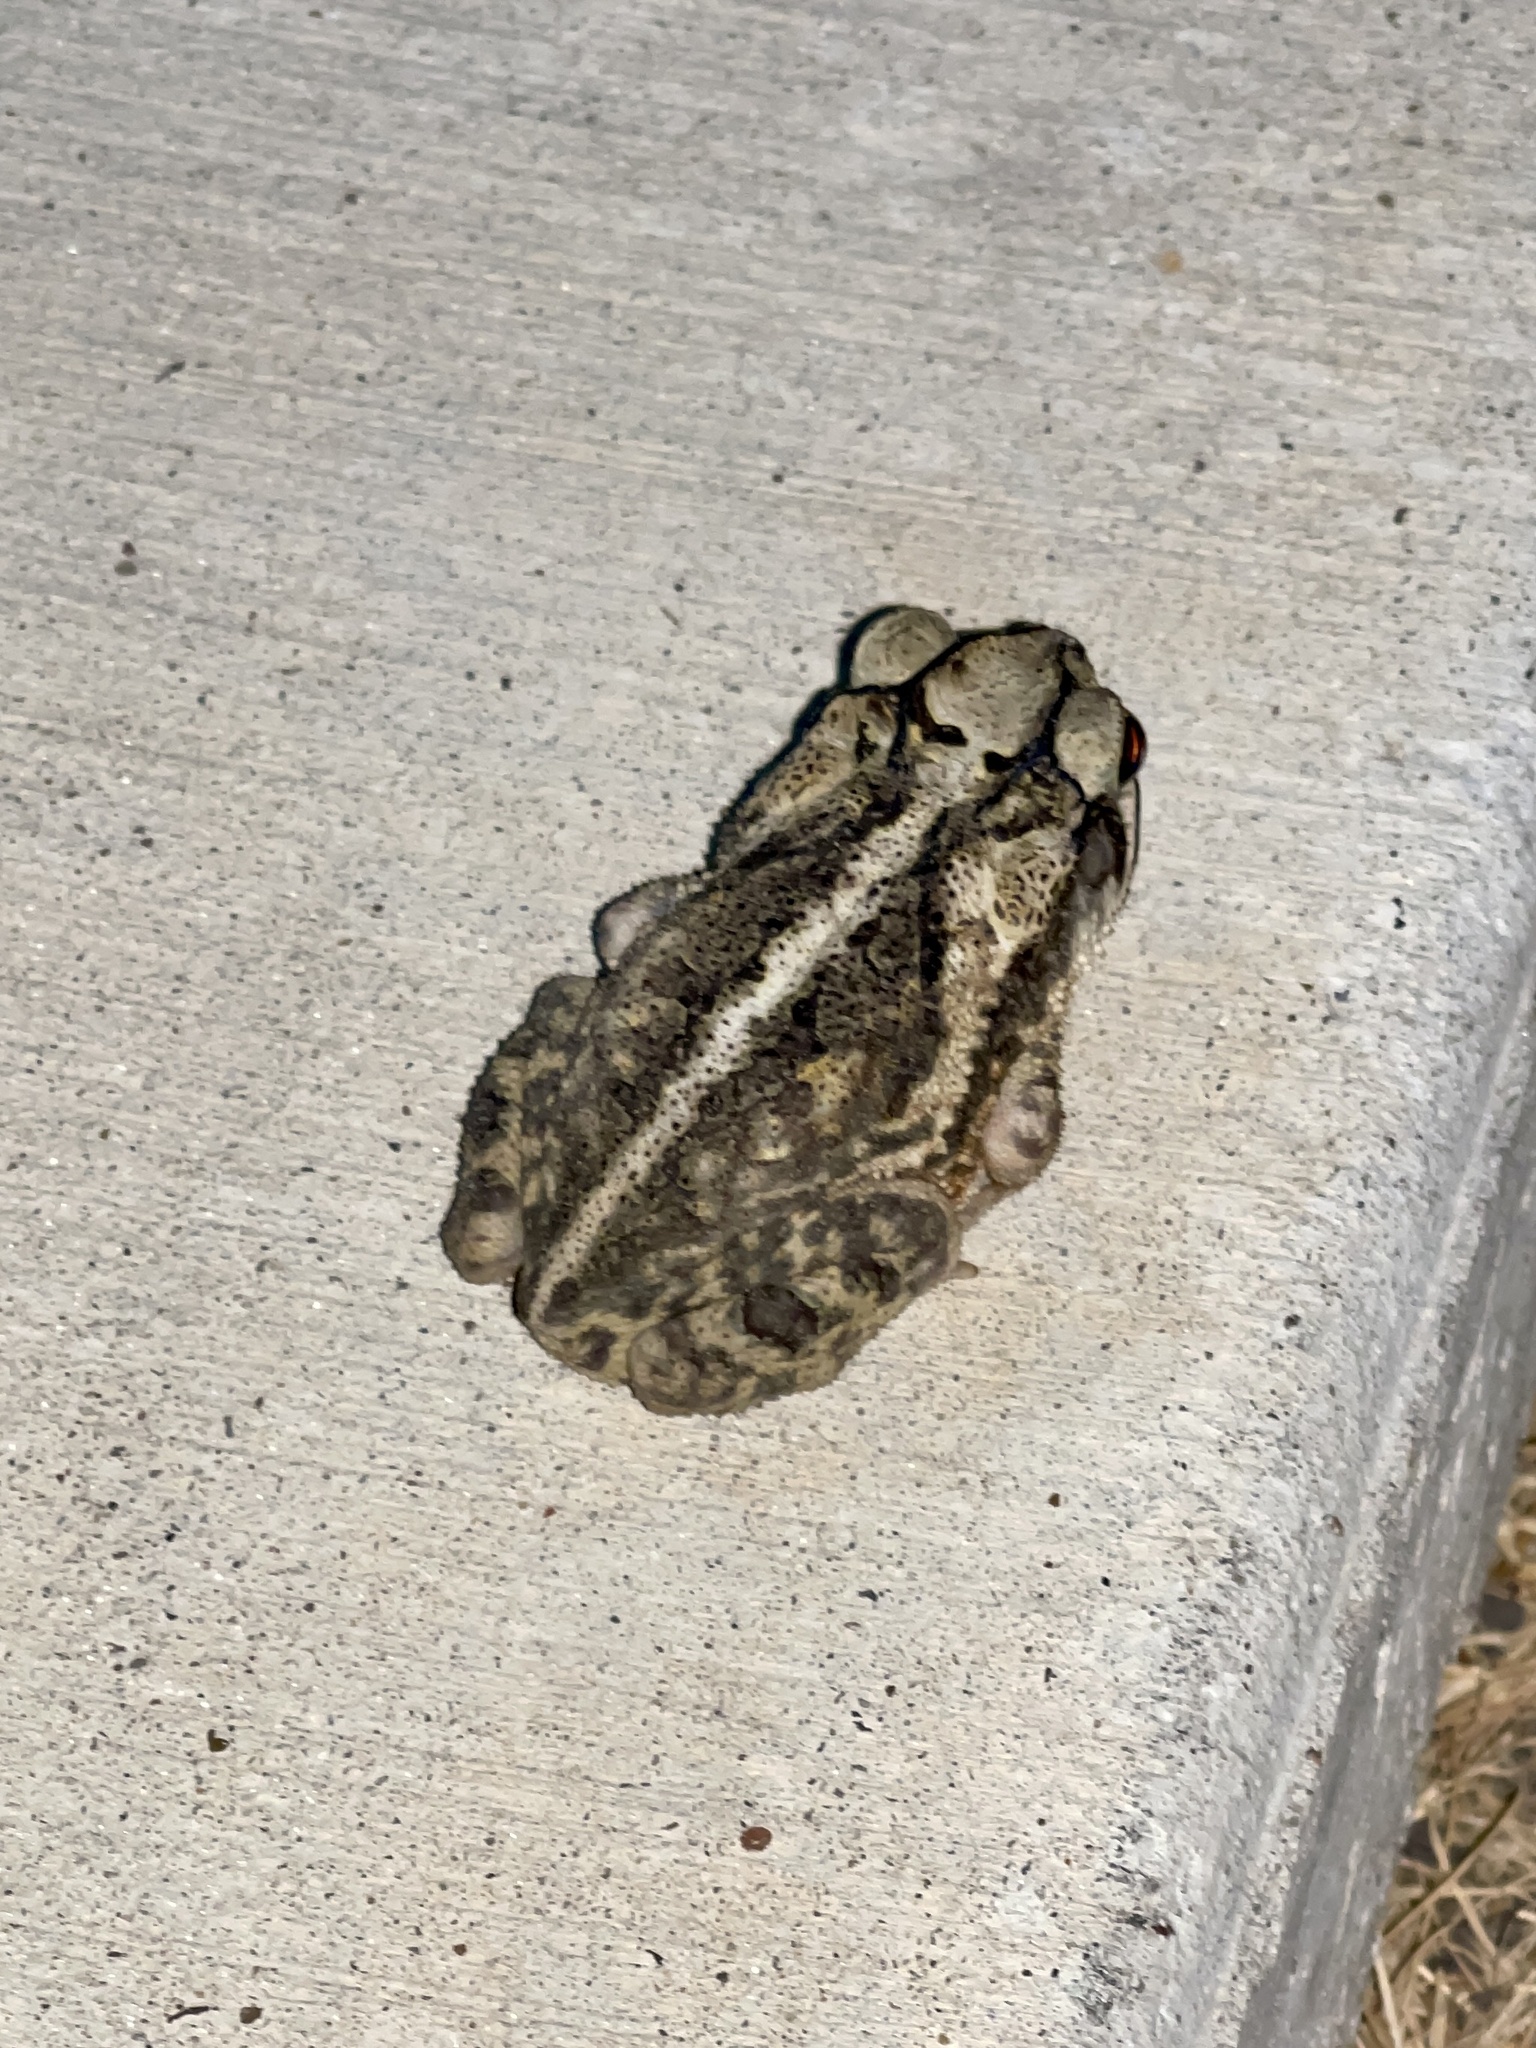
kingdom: Animalia
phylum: Chordata
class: Amphibia
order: Anura
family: Bufonidae
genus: Incilius
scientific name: Incilius nebulifer
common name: Gulf coast toad
